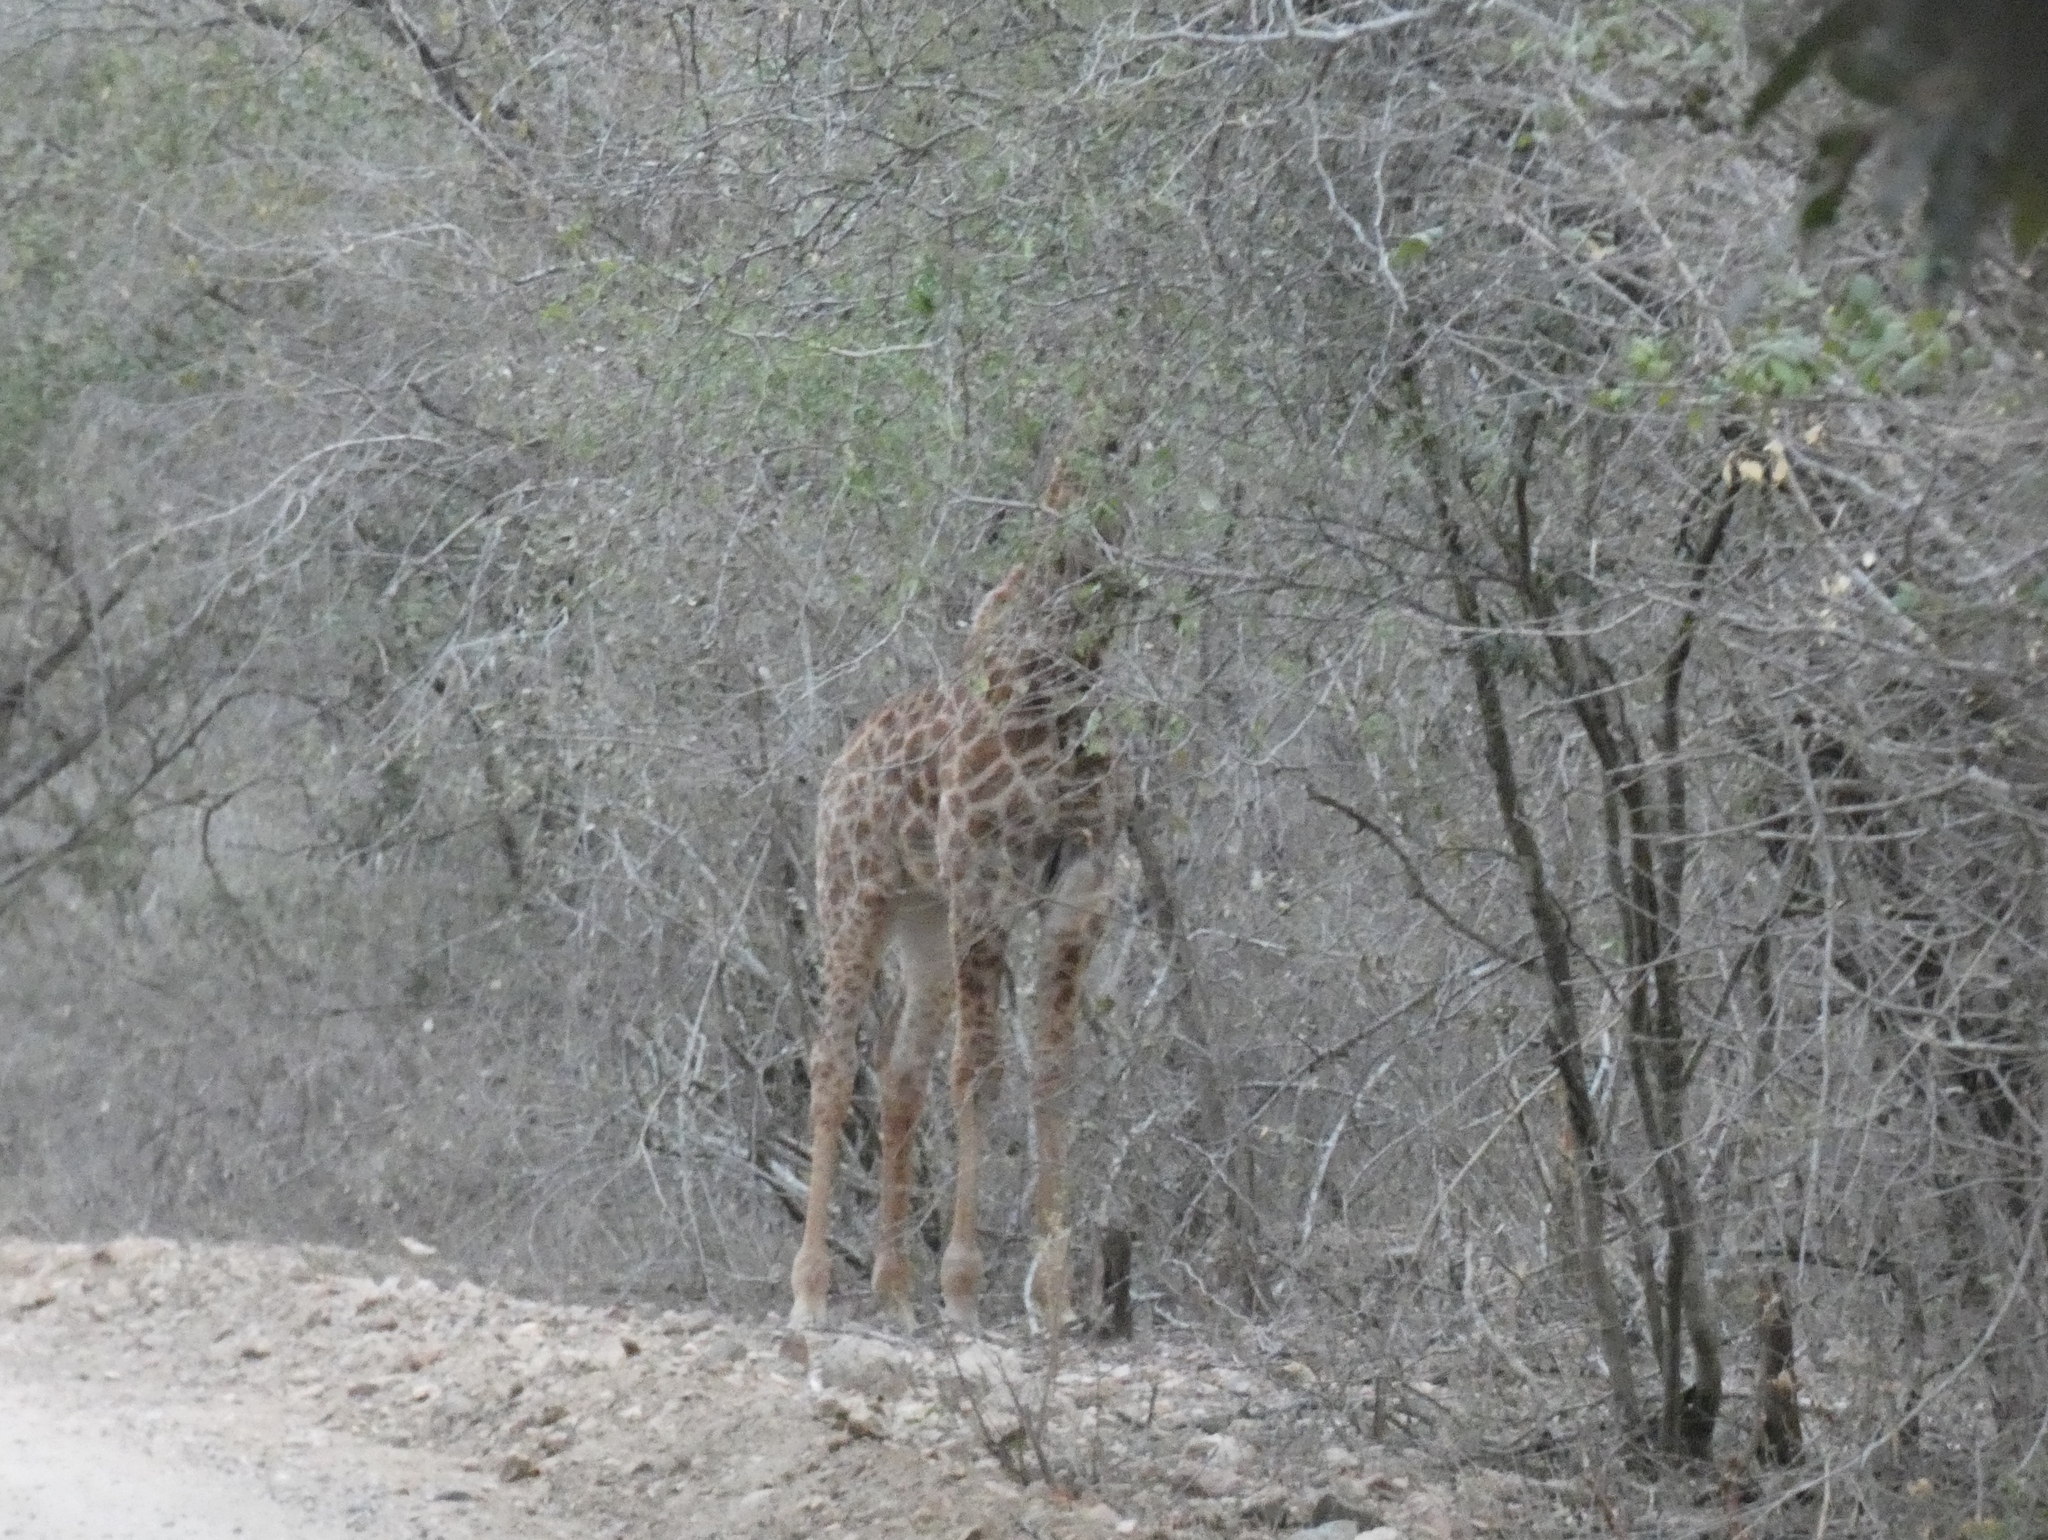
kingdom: Animalia
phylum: Chordata
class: Mammalia
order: Artiodactyla
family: Giraffidae
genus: Giraffa
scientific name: Giraffa giraffa
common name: Southern giraffe
